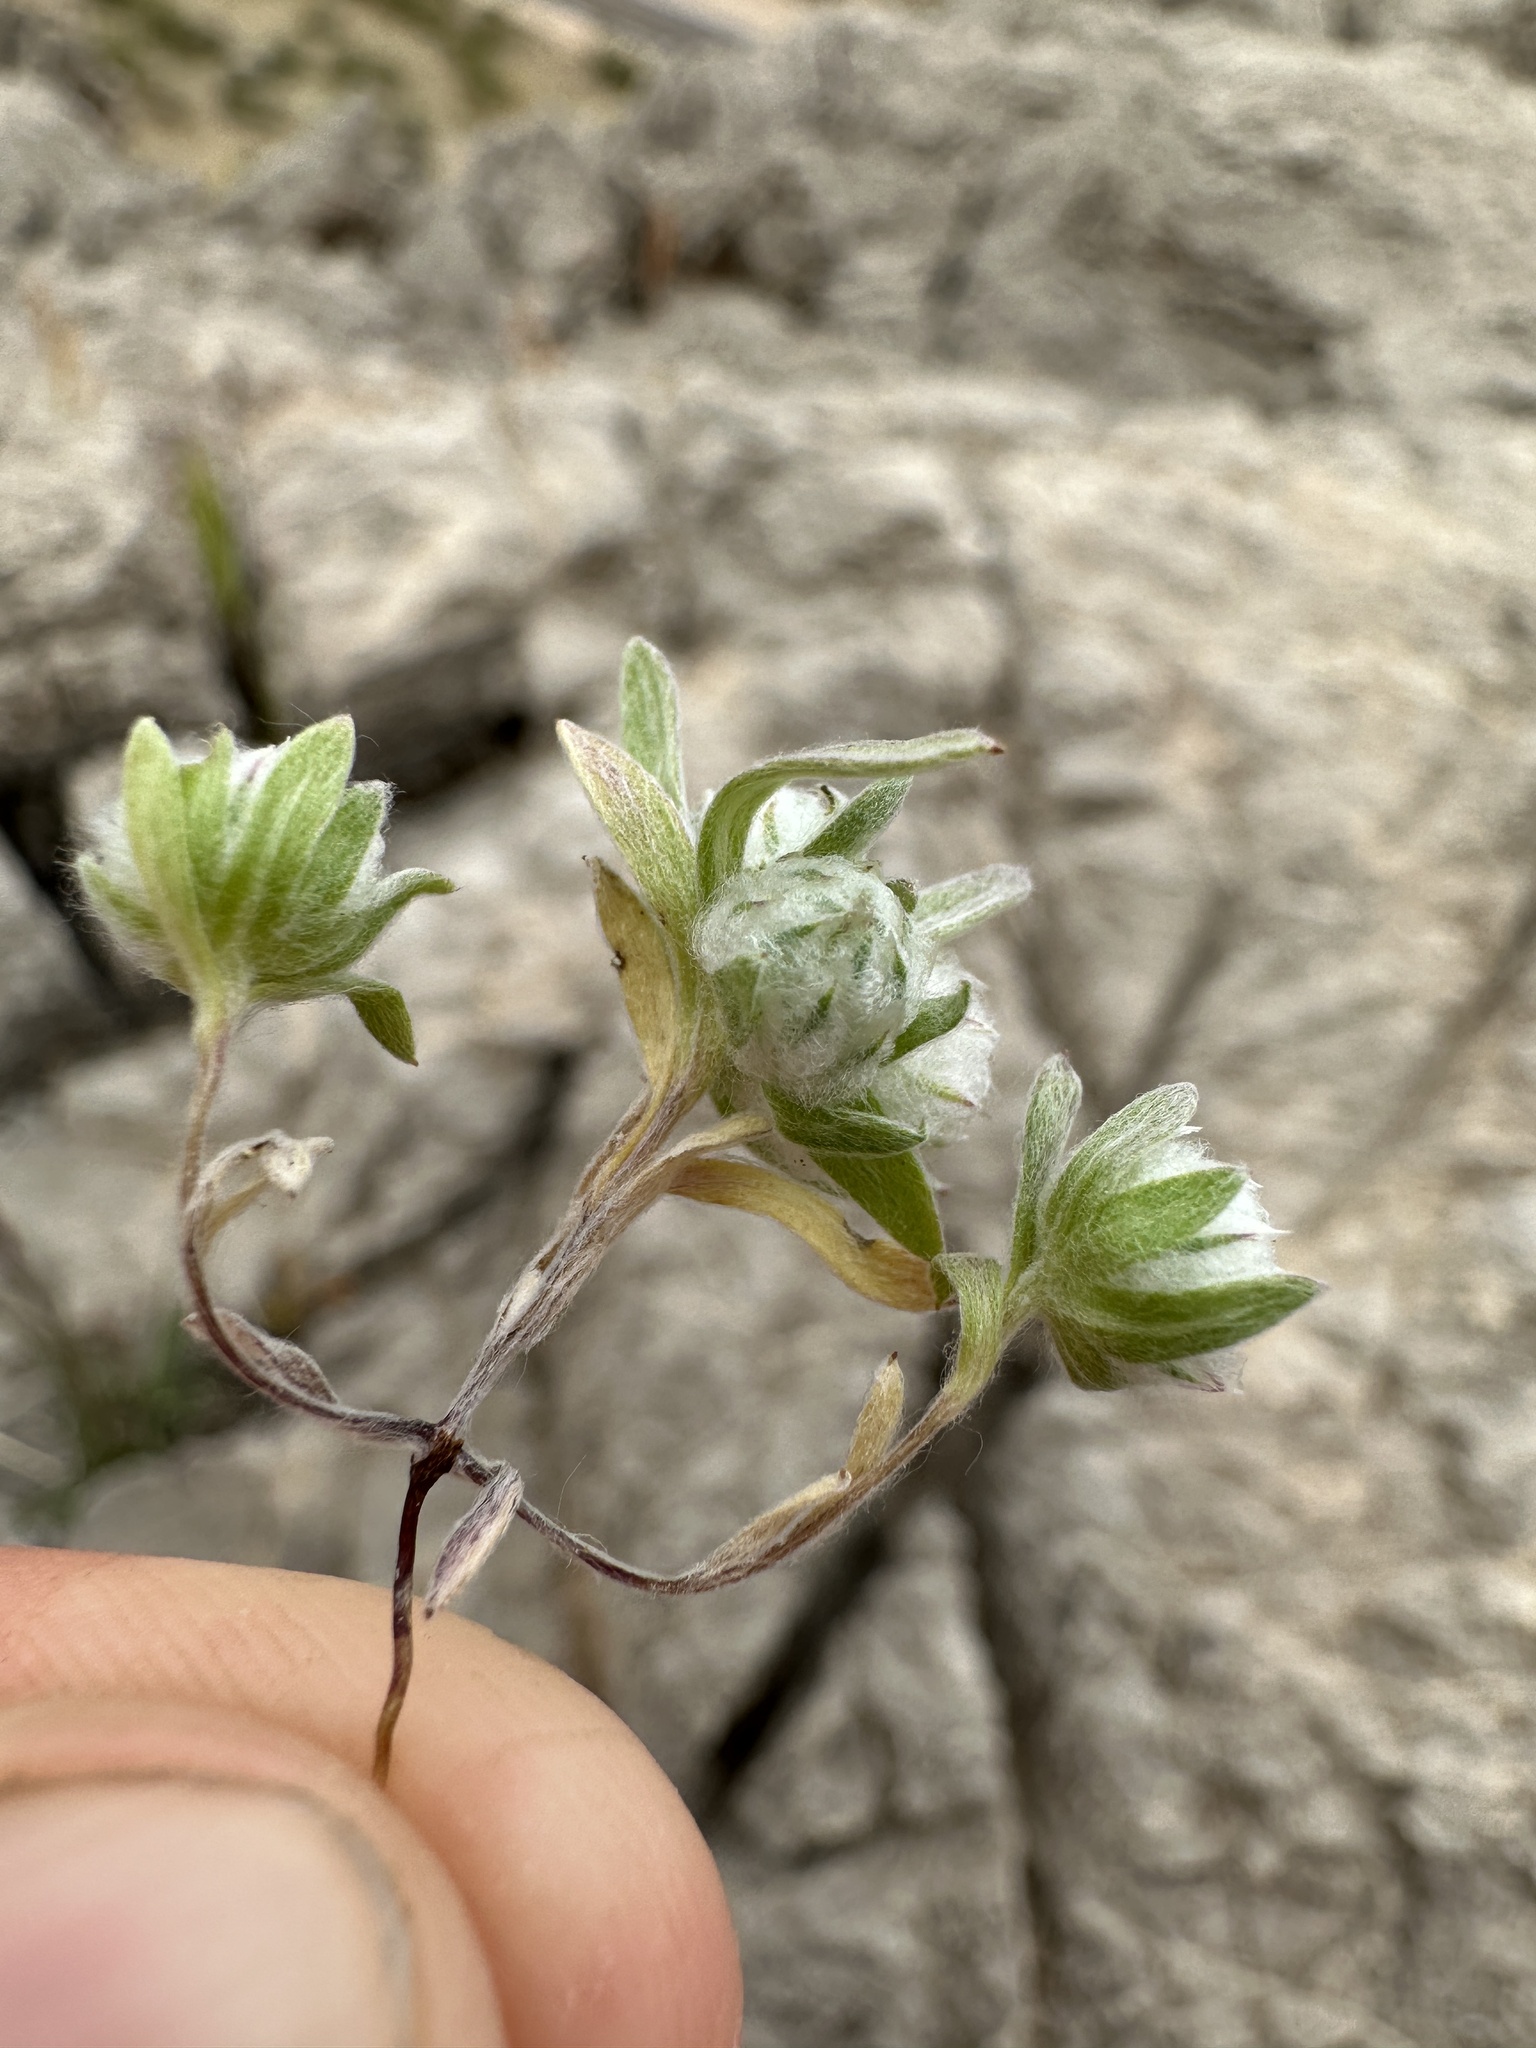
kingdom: Plantae
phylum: Tracheophyta
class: Magnoliopsida
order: Asterales
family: Asteraceae
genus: Stylocline
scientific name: Stylocline micropoides
